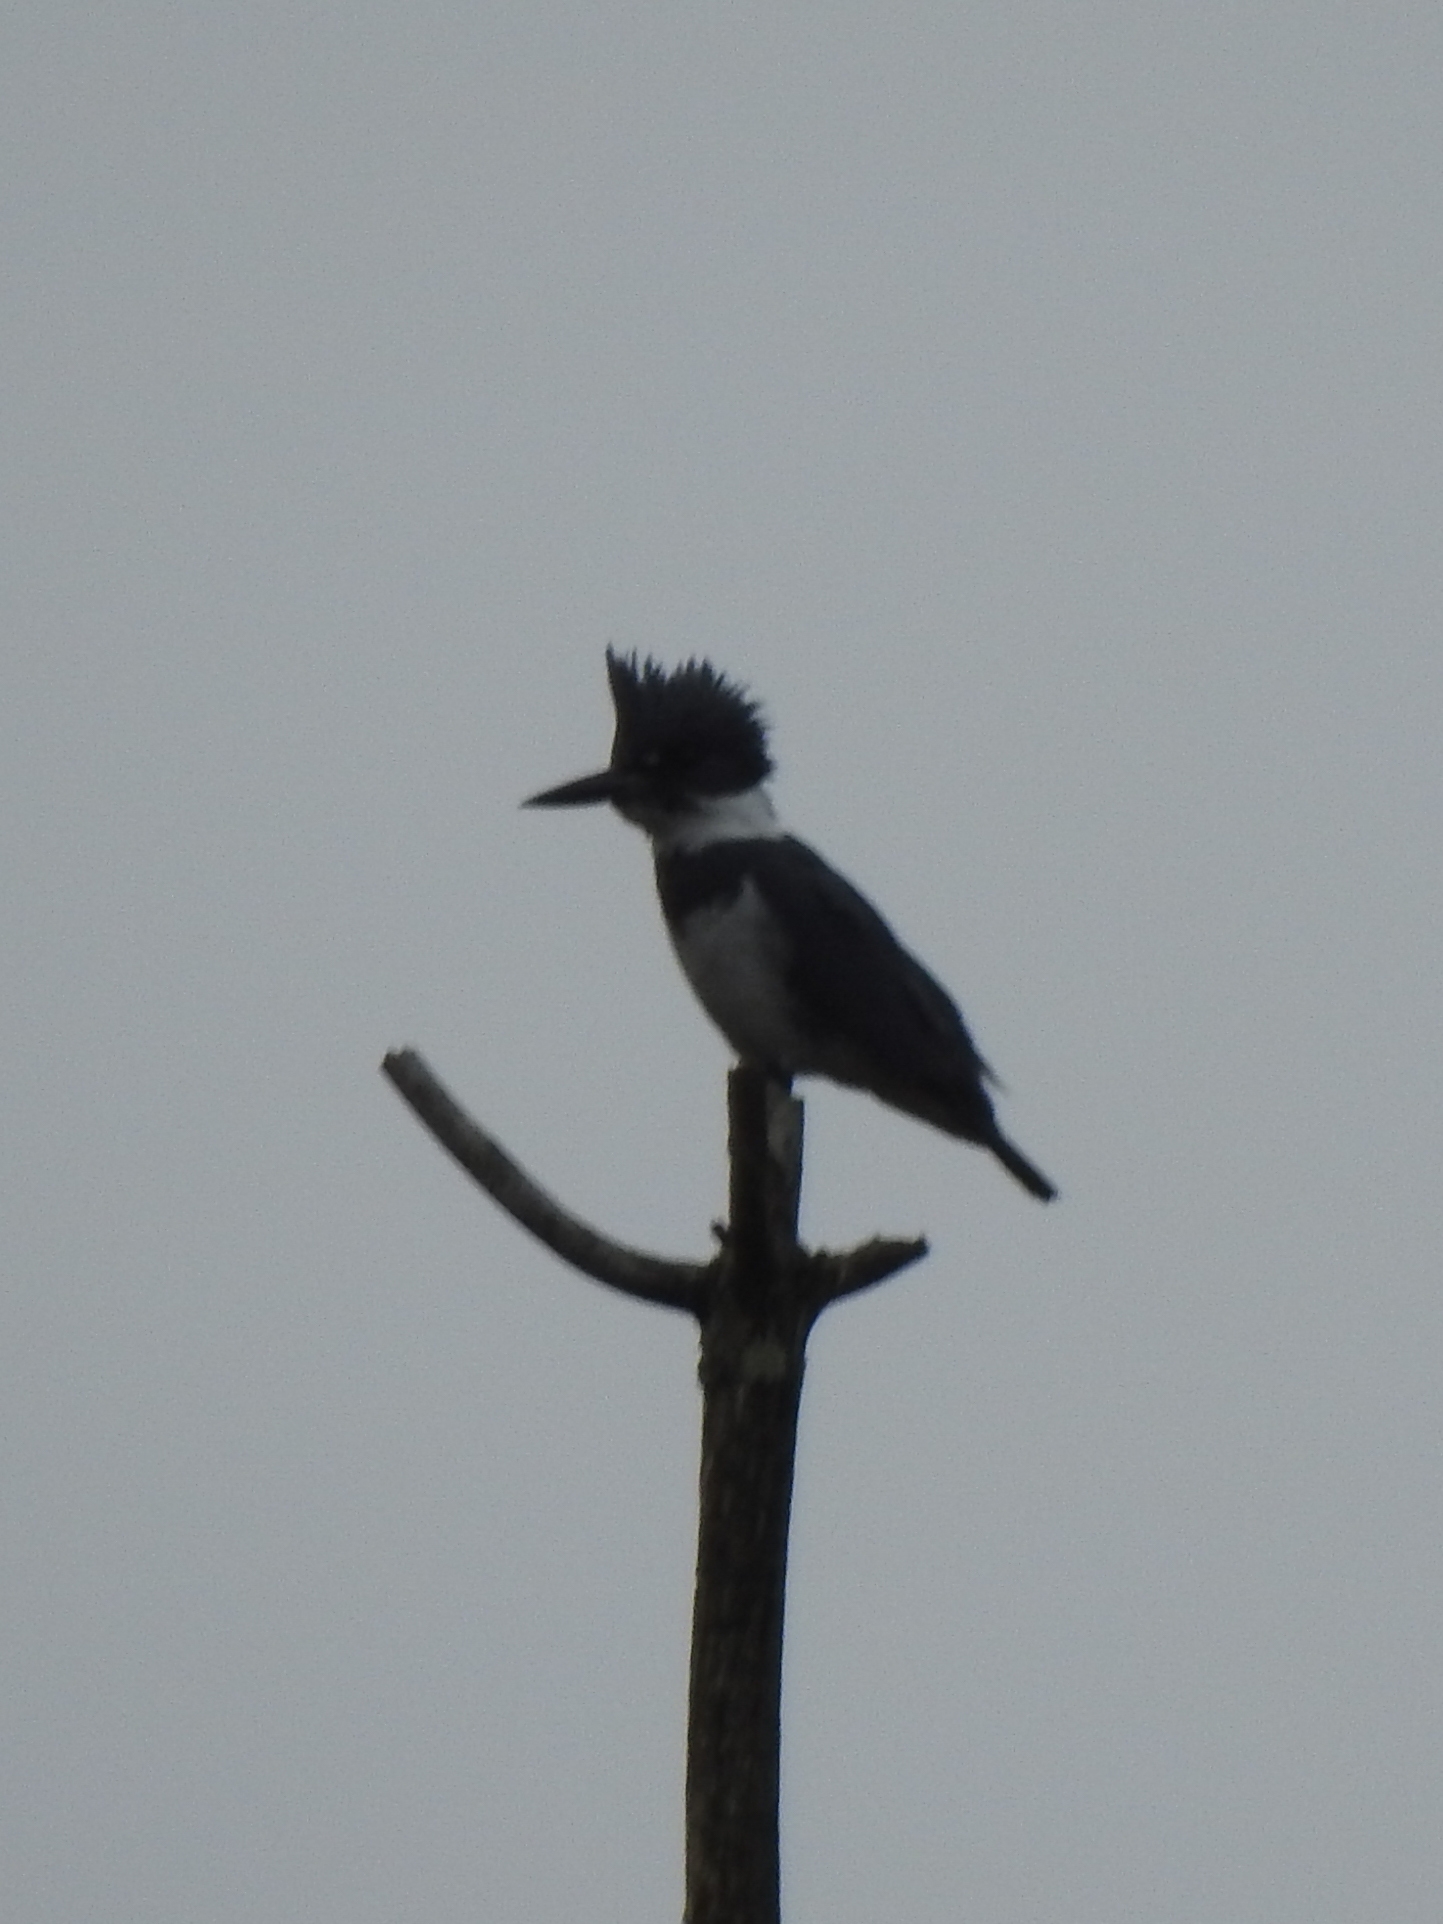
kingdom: Animalia
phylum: Chordata
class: Aves
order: Coraciiformes
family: Alcedinidae
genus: Megaceryle
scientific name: Megaceryle alcyon
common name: Belted kingfisher
